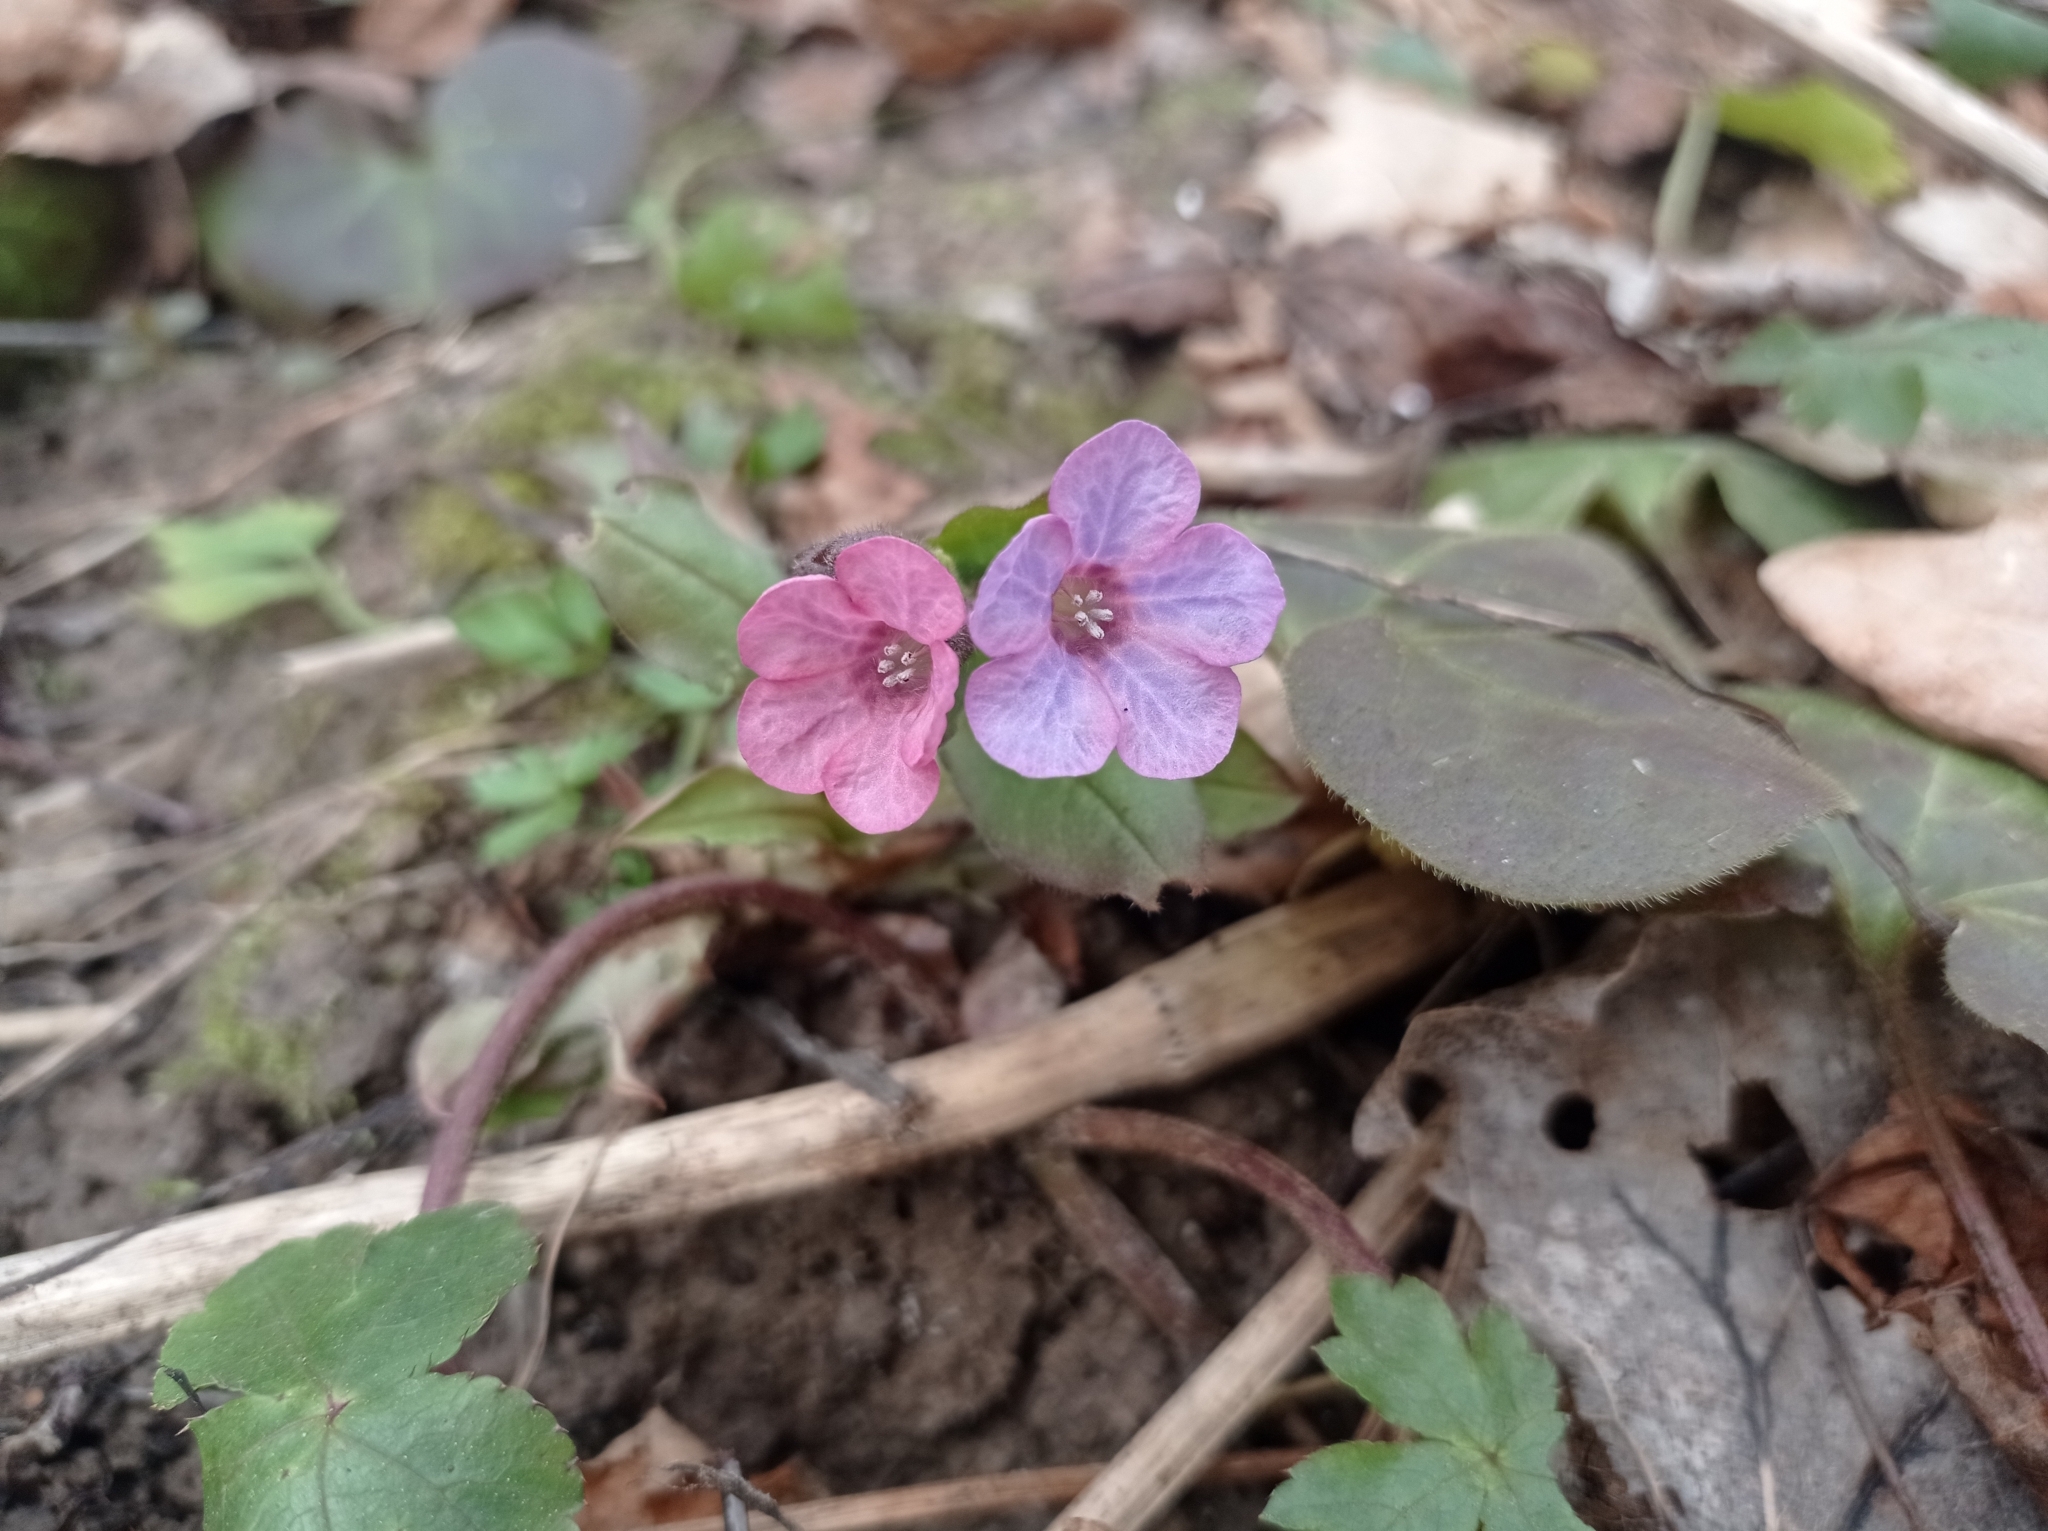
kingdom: Plantae
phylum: Tracheophyta
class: Magnoliopsida
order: Boraginales
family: Boraginaceae
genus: Pulmonaria
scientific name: Pulmonaria obscura
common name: Suffolk lungwort
